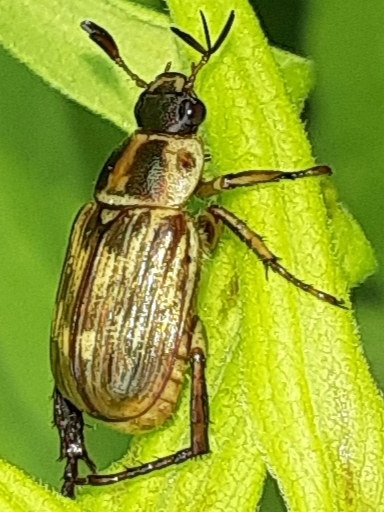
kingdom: Animalia
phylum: Arthropoda
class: Insecta
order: Coleoptera
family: Scarabaeidae
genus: Exomala
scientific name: Exomala orientalis
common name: Oriental beetle
